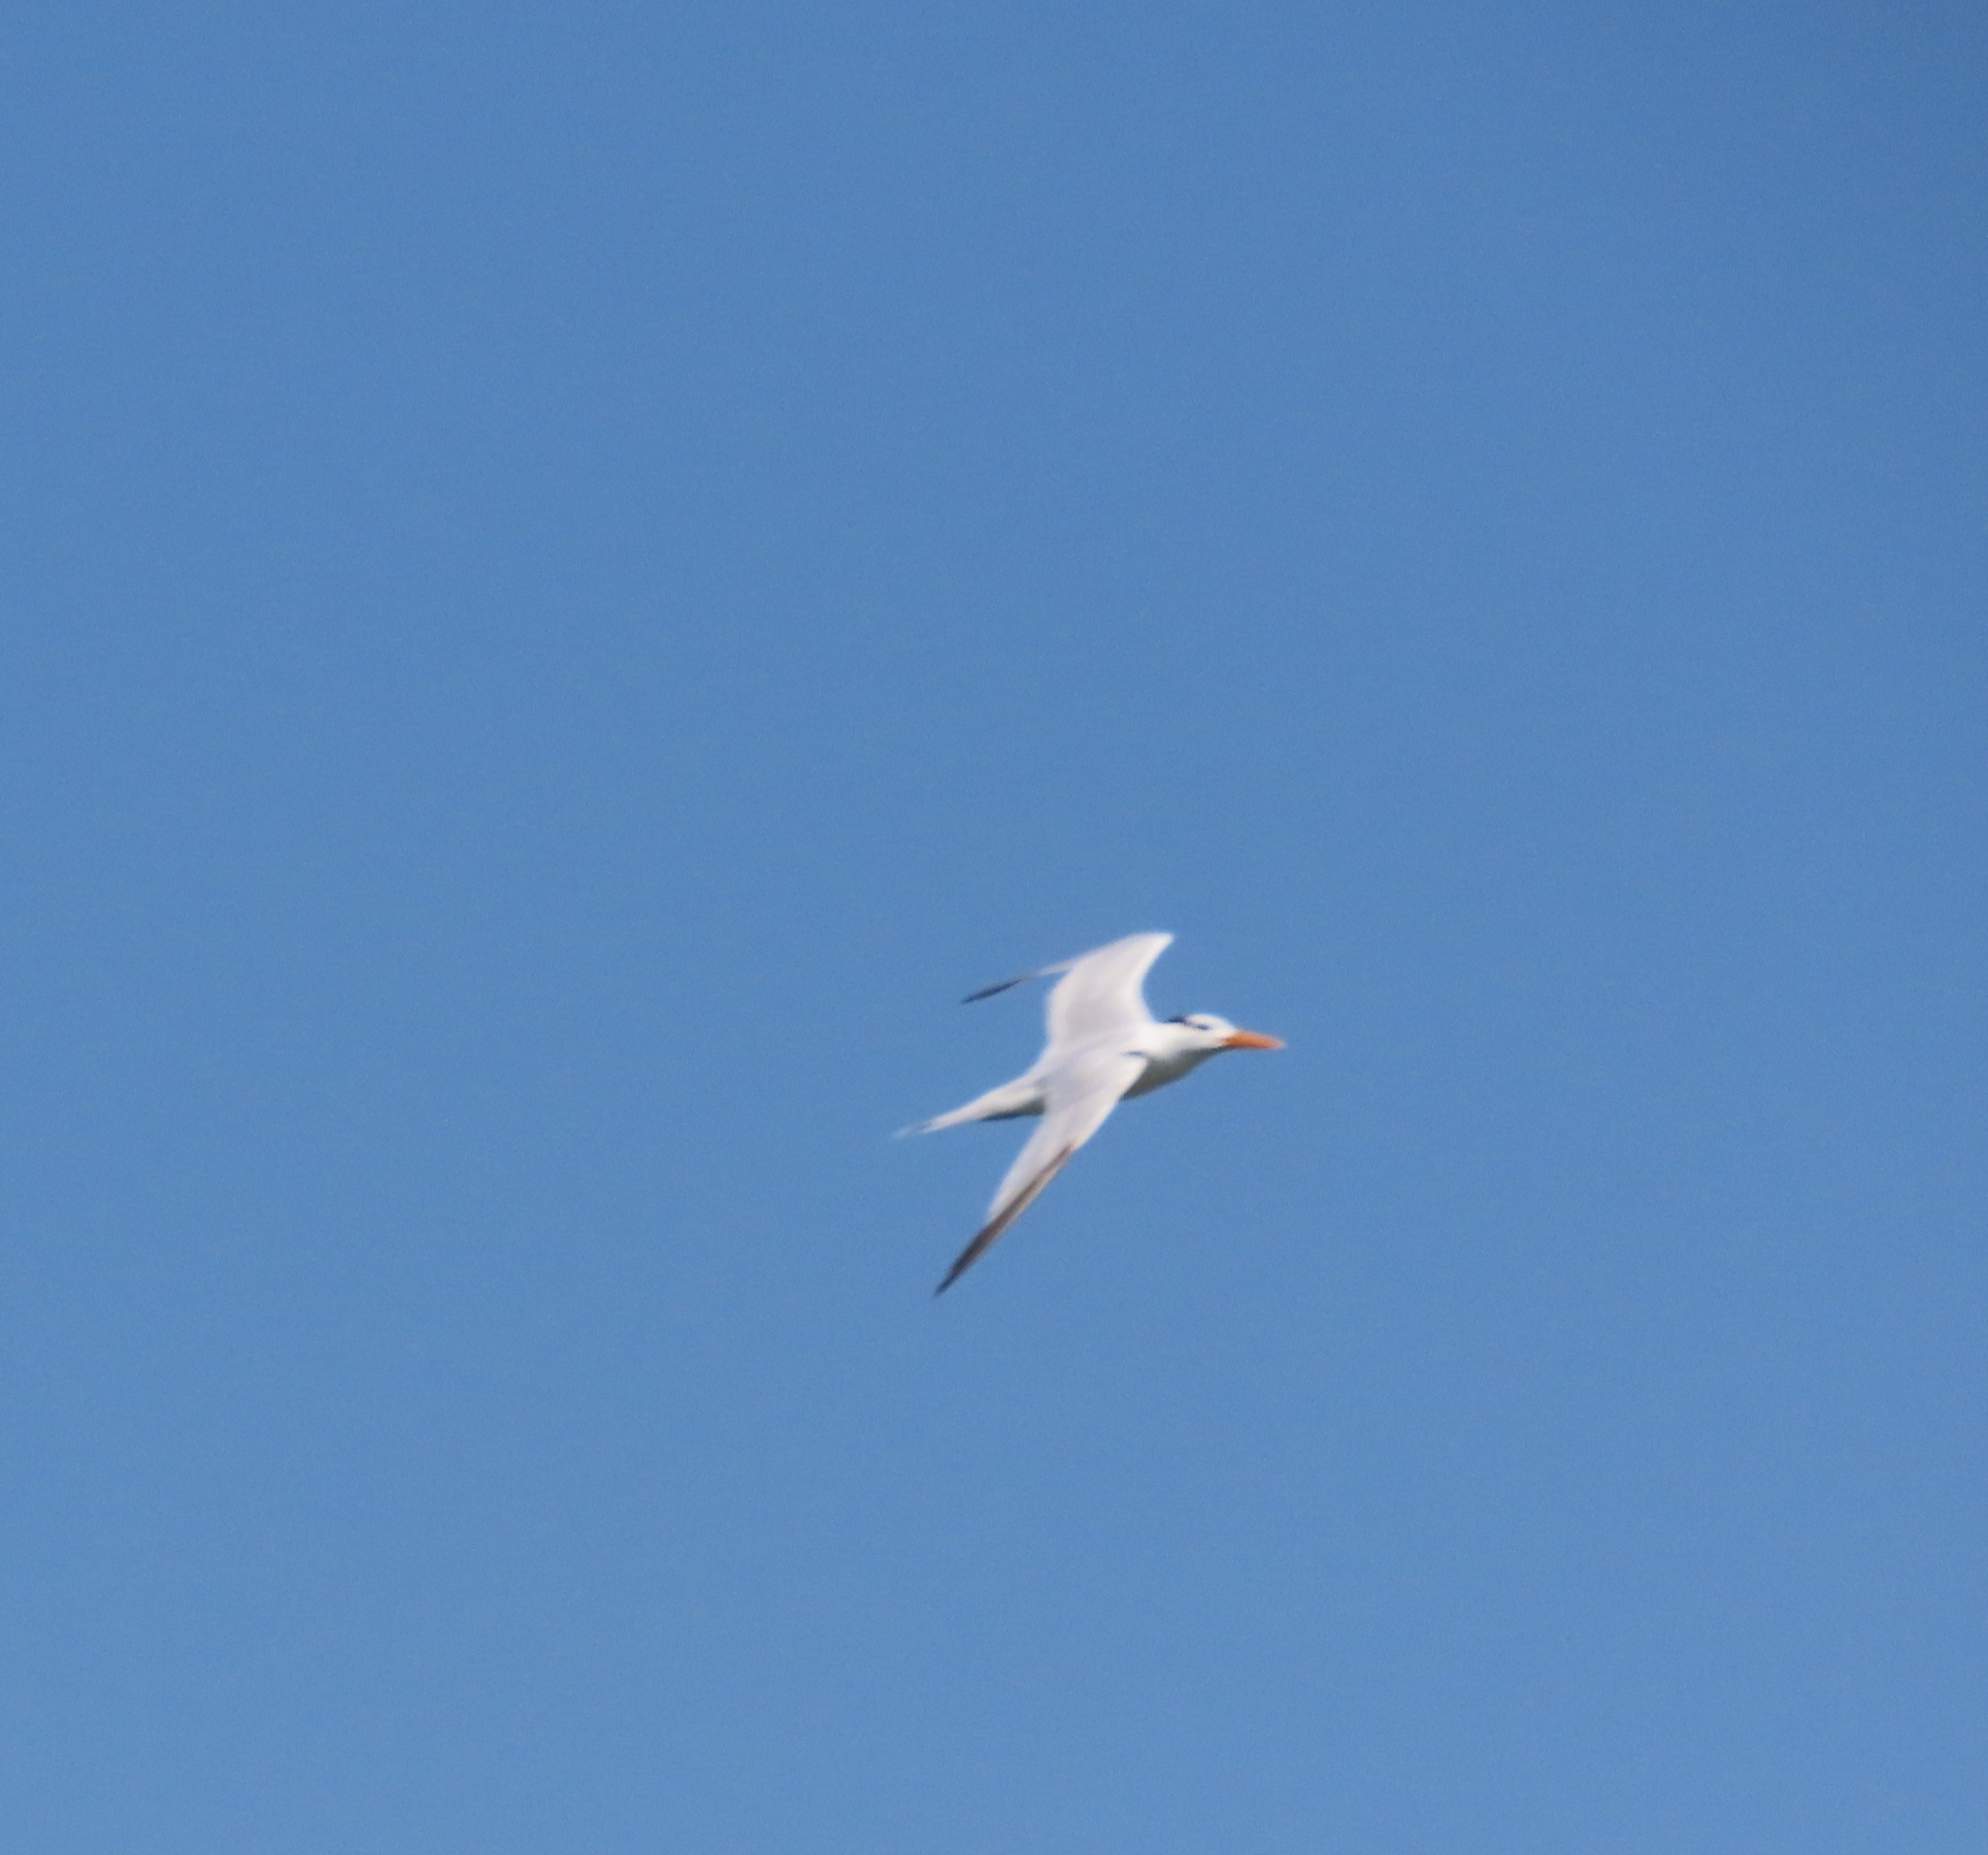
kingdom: Animalia
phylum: Chordata
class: Aves
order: Charadriiformes
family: Laridae
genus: Thalasseus
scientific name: Thalasseus maximus
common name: Royal tern
